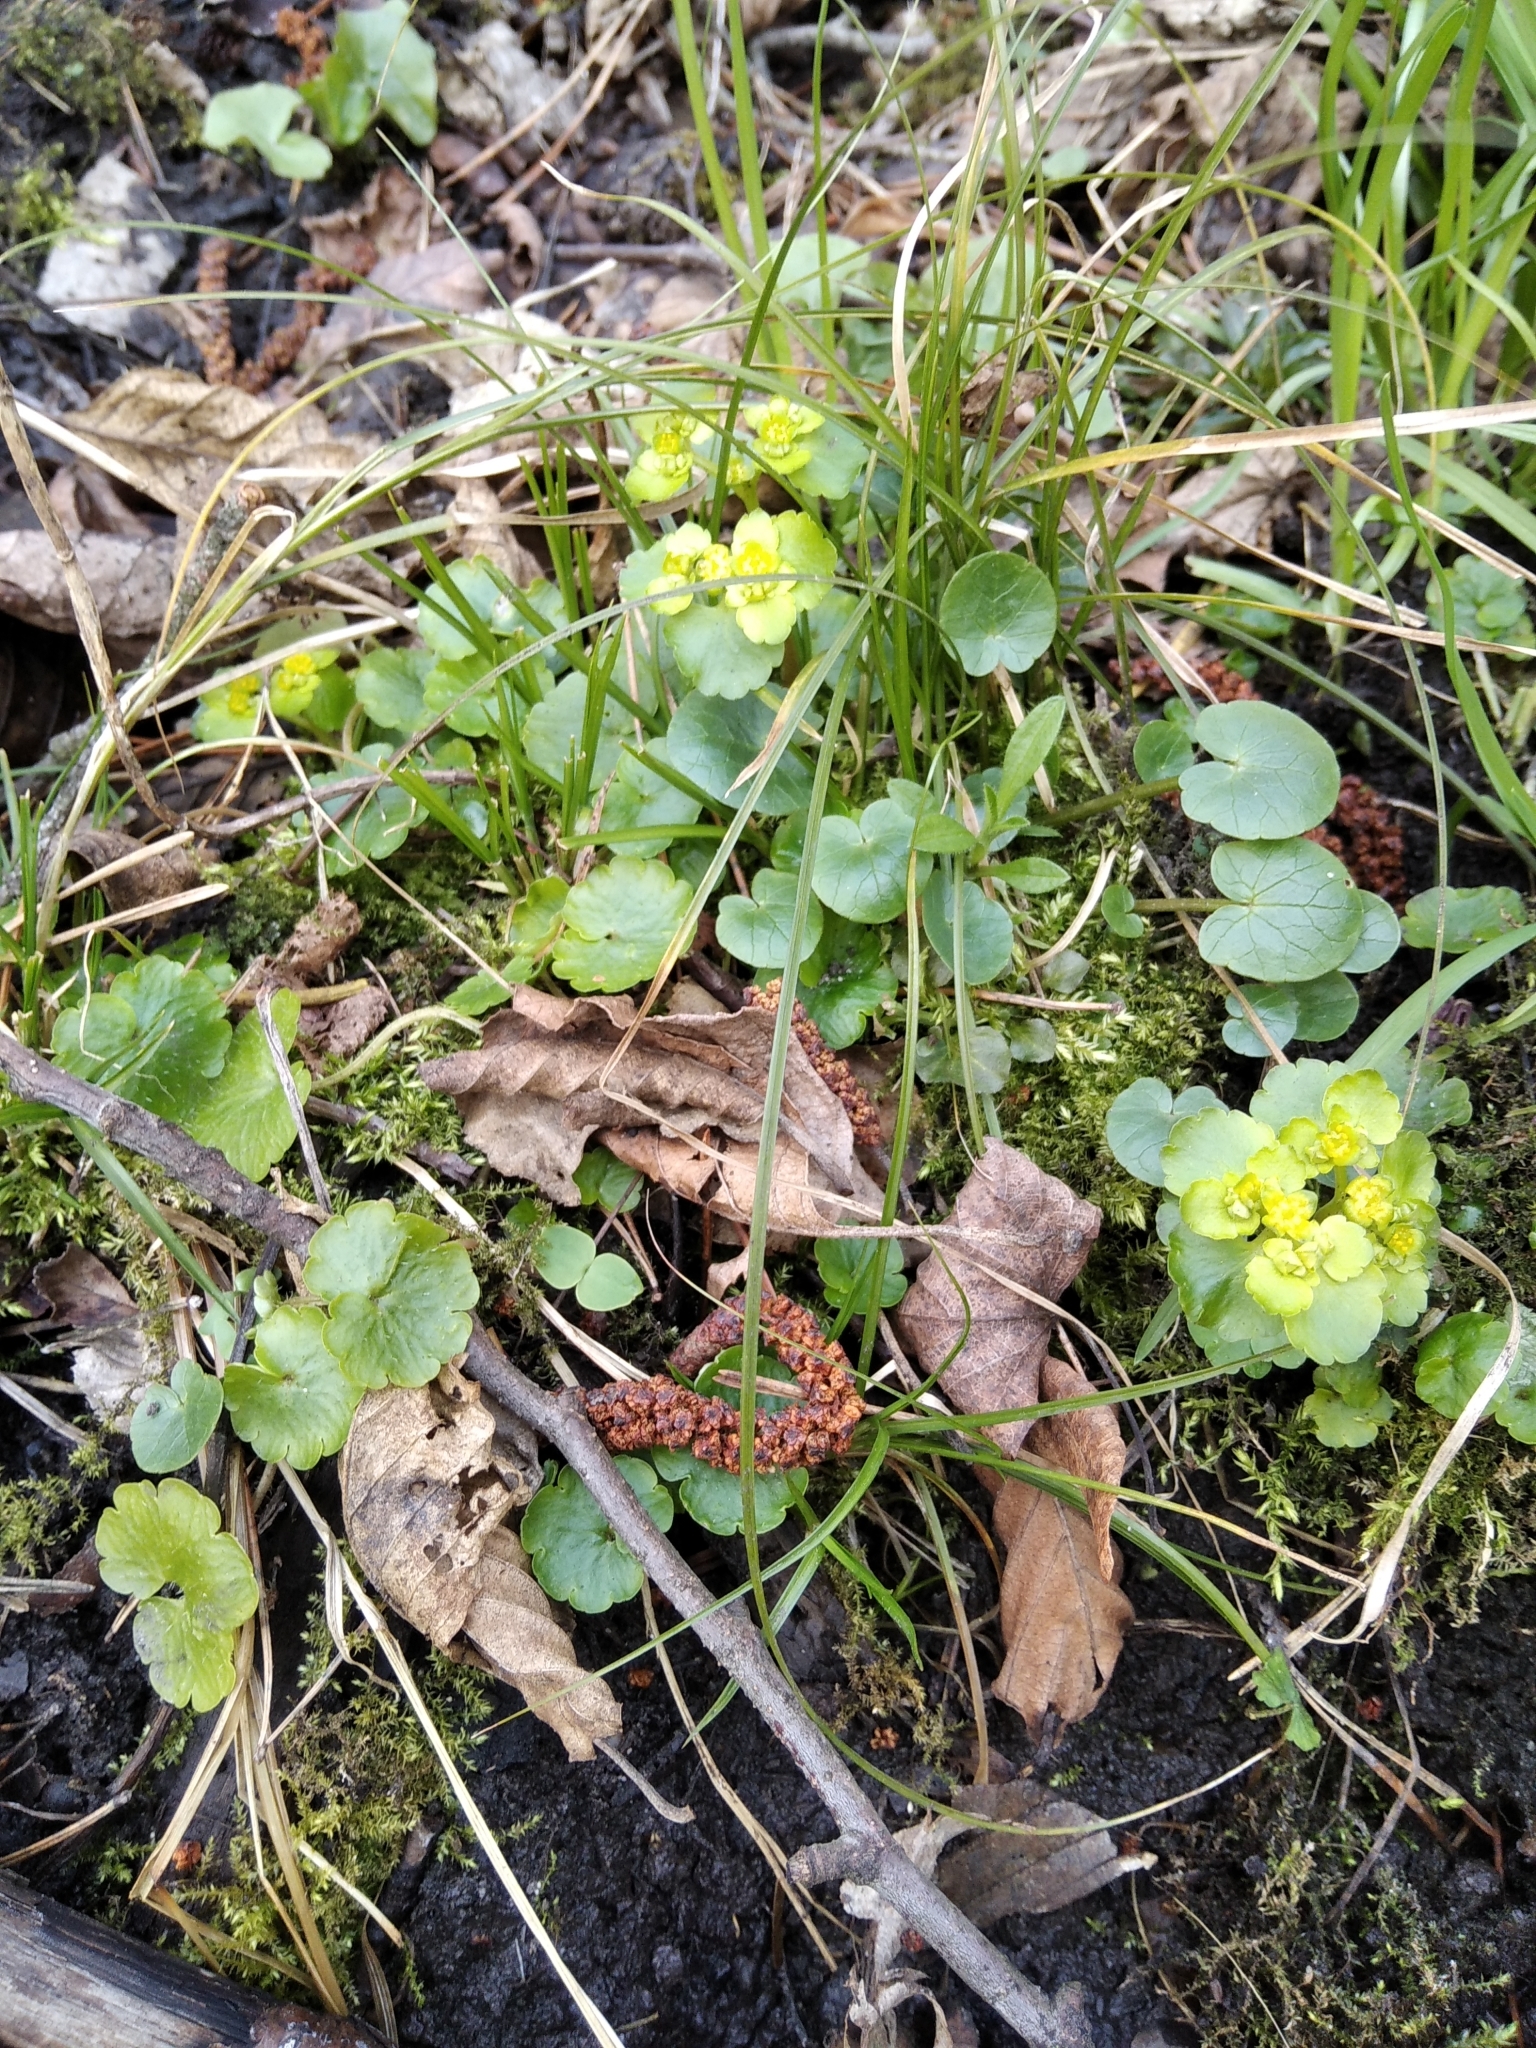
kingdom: Plantae
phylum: Tracheophyta
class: Magnoliopsida
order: Saxifragales
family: Saxifragaceae
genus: Chrysosplenium
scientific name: Chrysosplenium alternifolium
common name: Alternate-leaved golden-saxifrage
